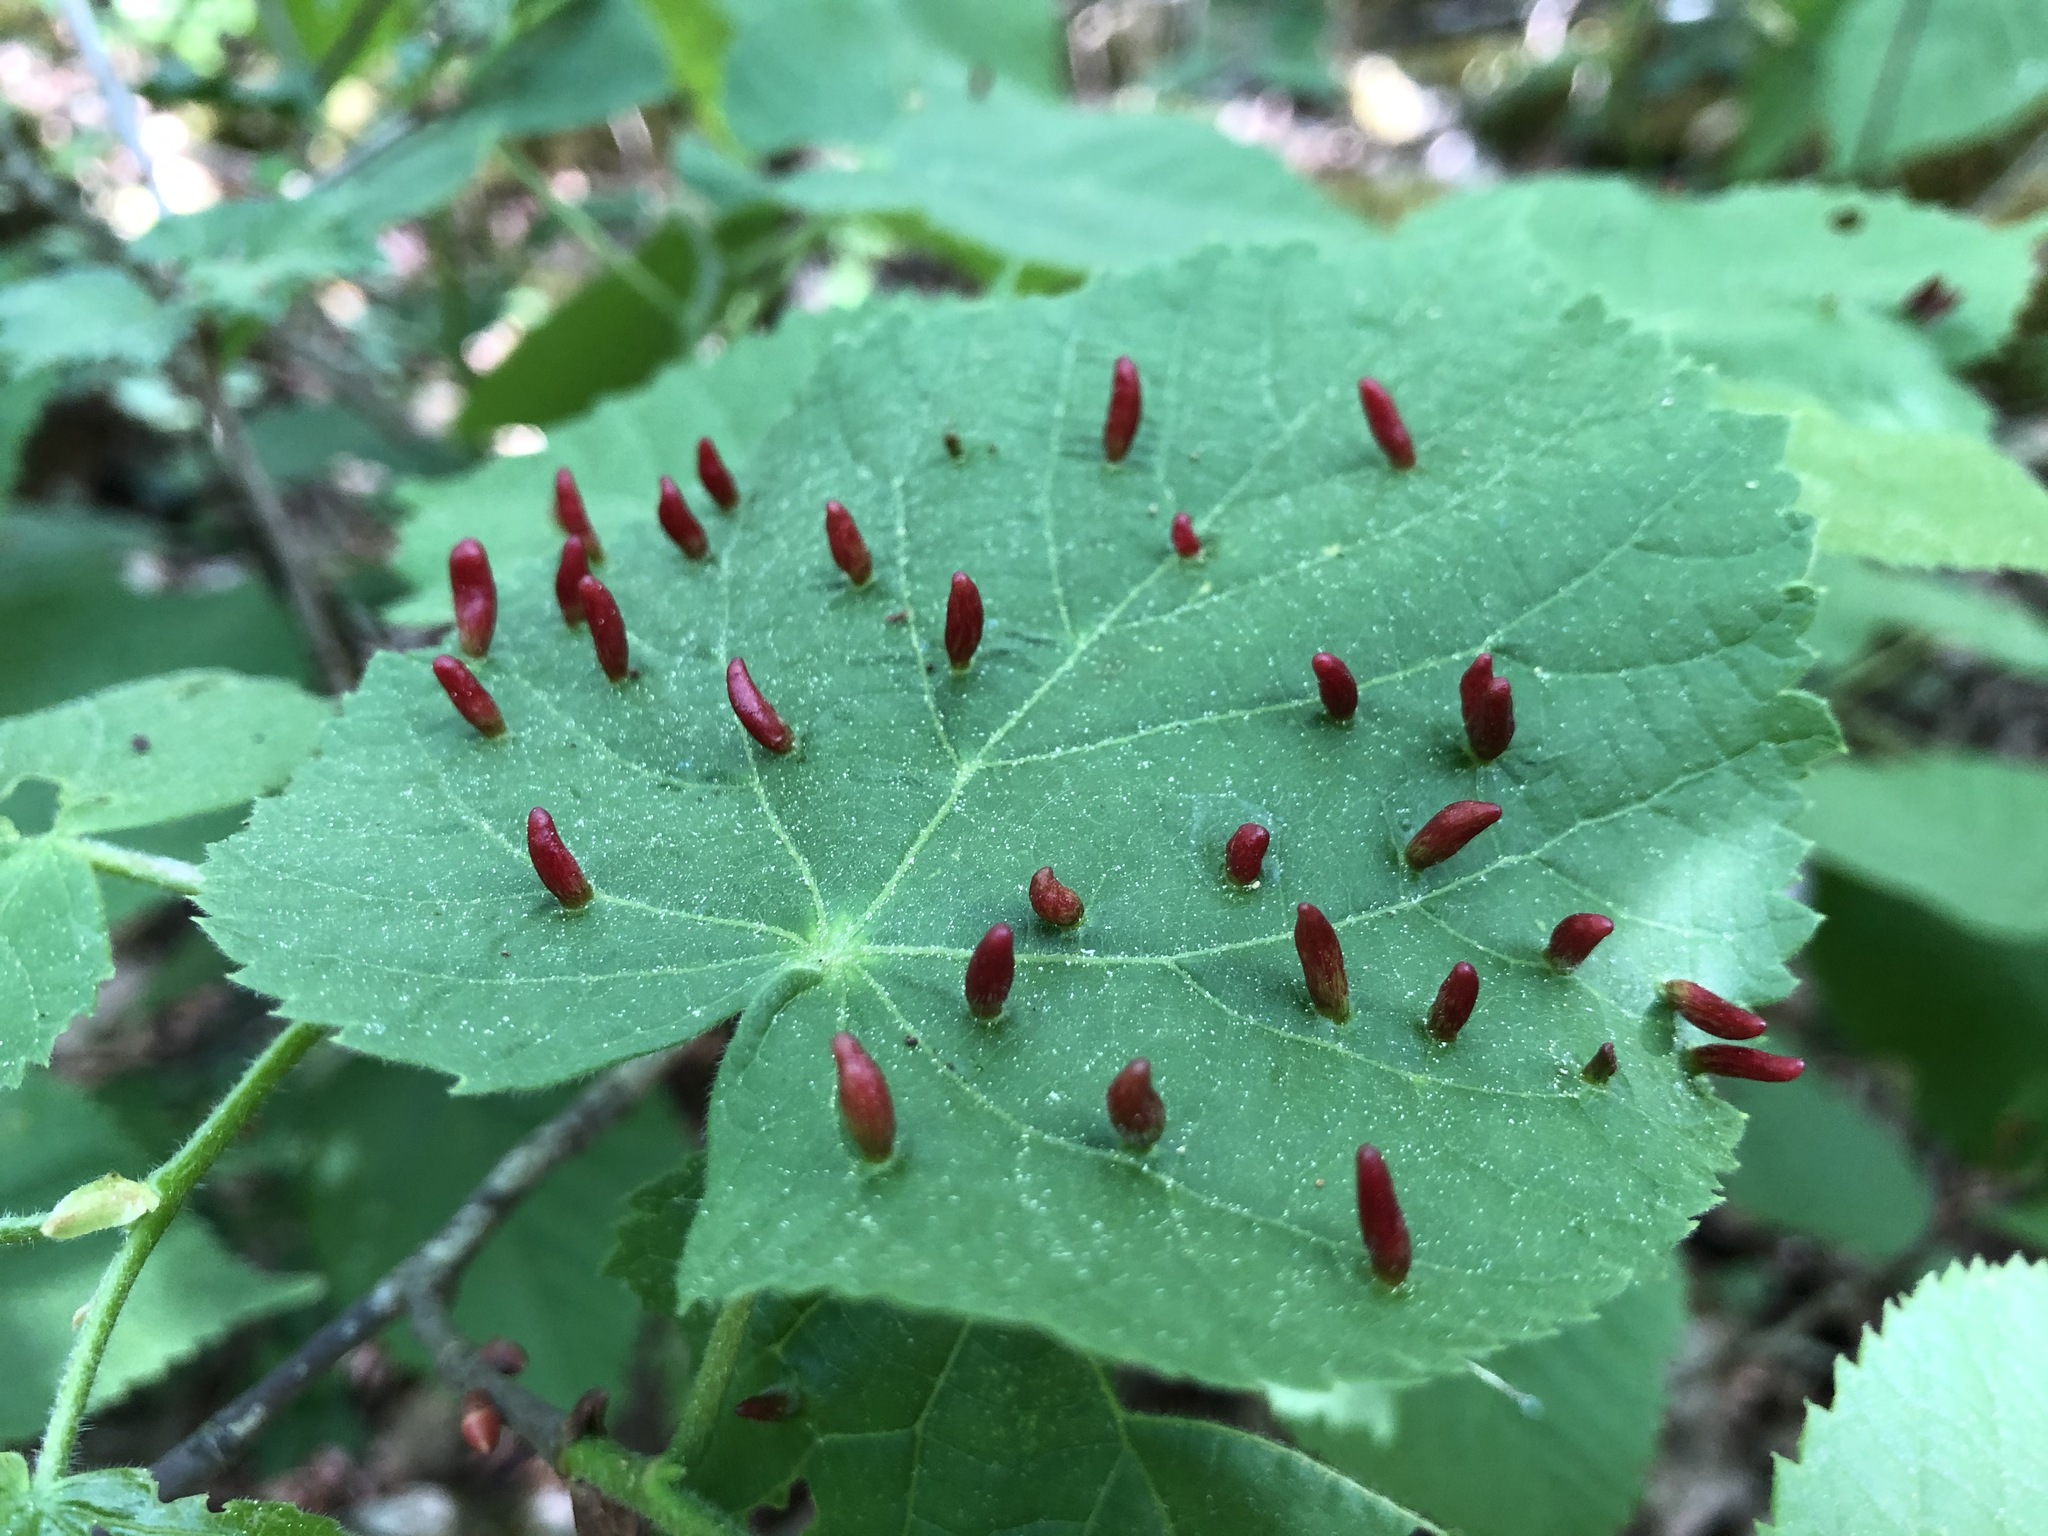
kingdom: Animalia
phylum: Arthropoda
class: Arachnida
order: Trombidiformes
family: Eriophyidae
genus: Eriophyes
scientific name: Eriophyes tiliae
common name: Red nail gall mite
